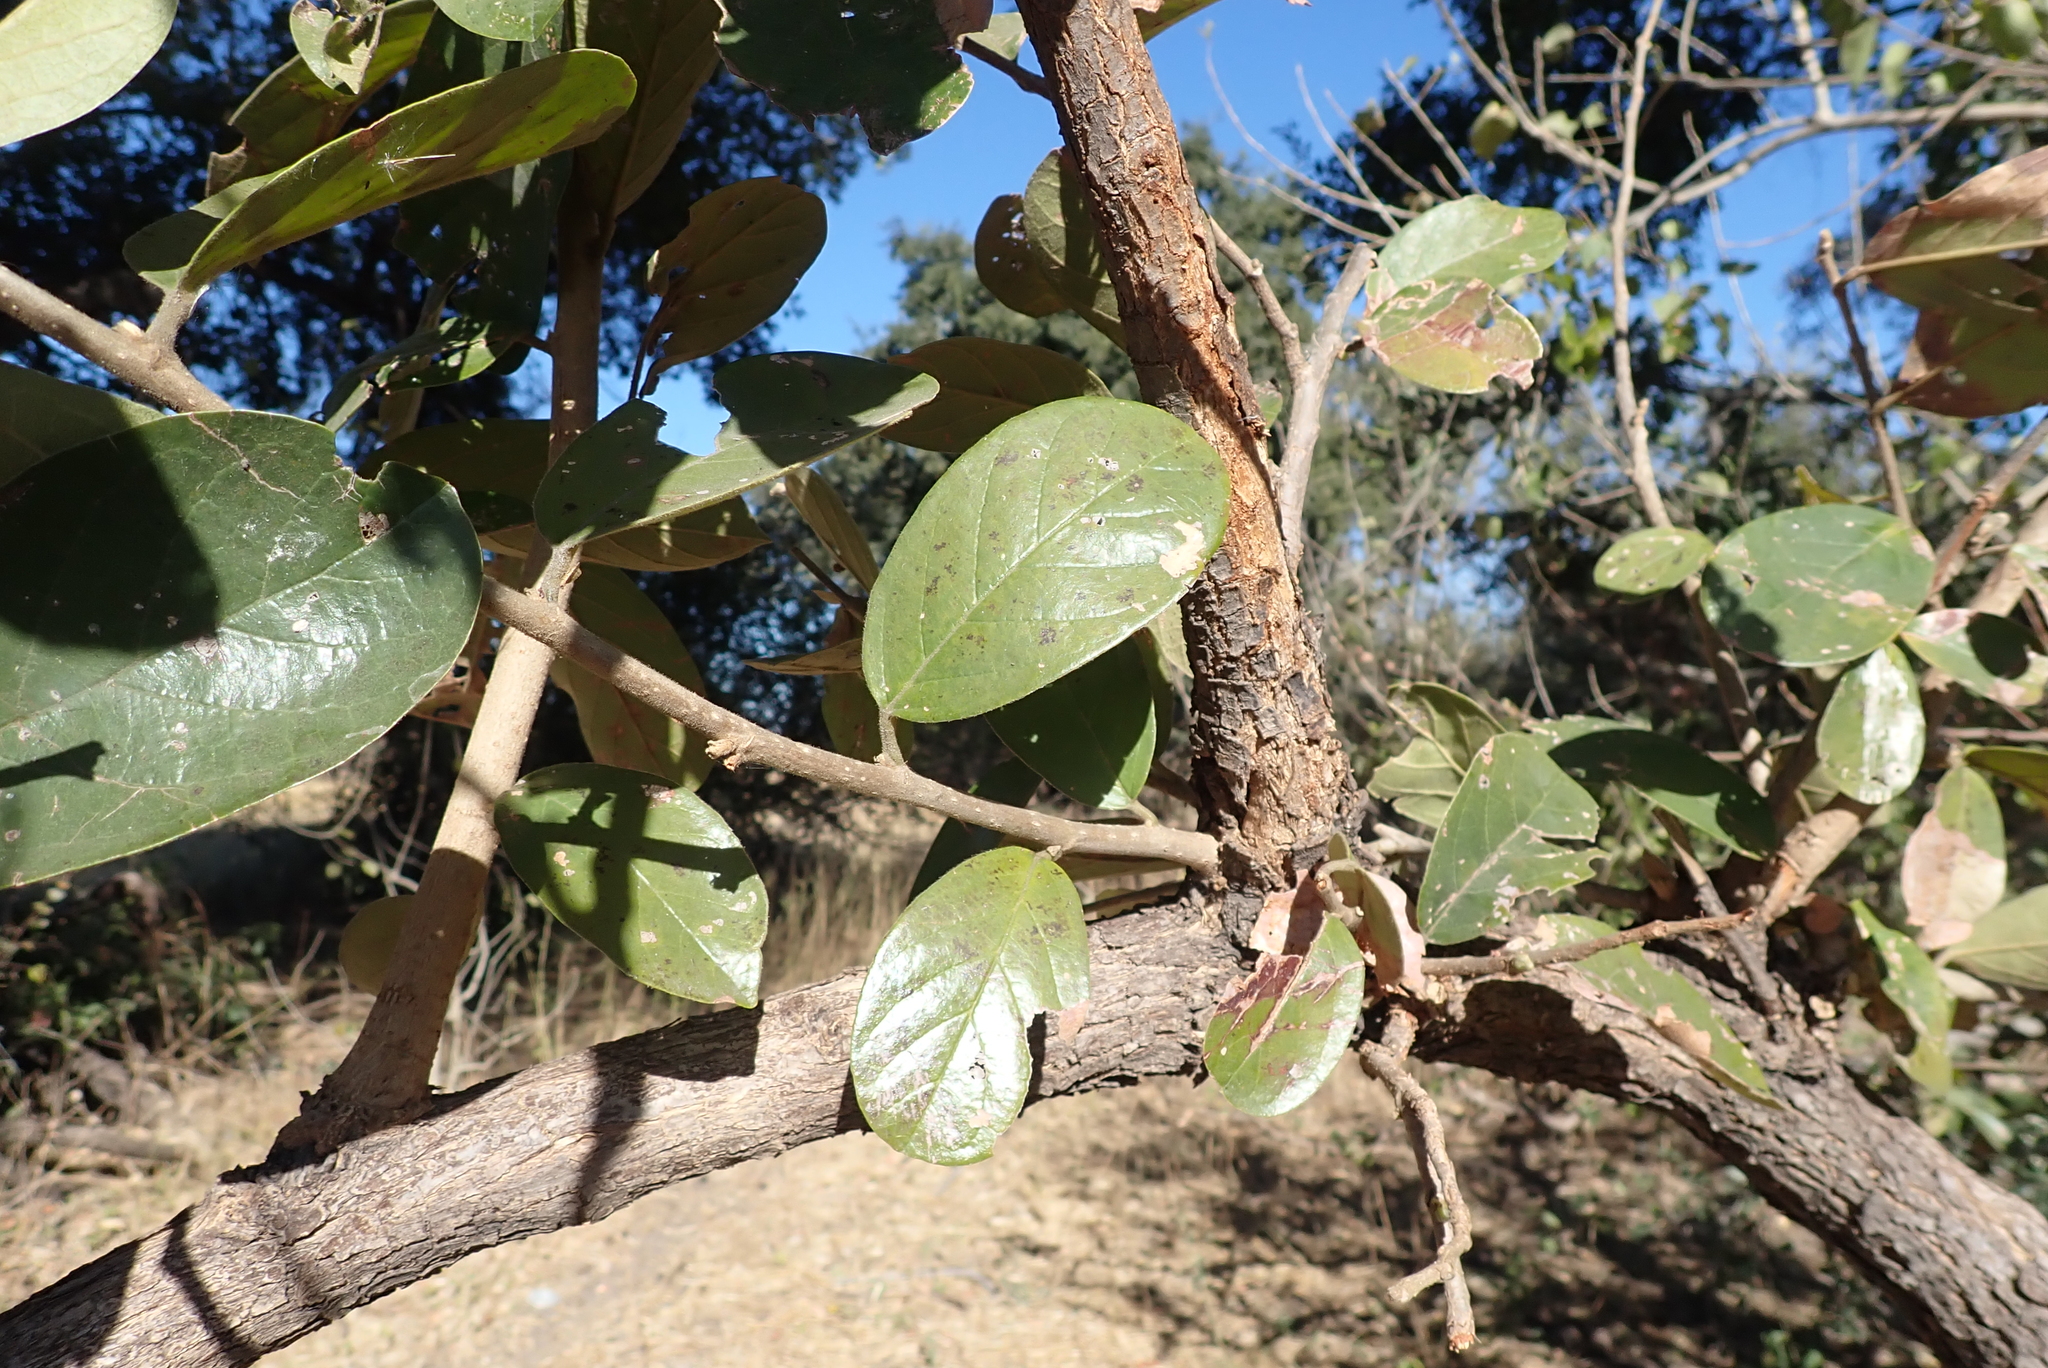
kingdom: Plantae
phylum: Tracheophyta
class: Magnoliopsida
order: Malpighiales
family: Phyllanthaceae
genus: Antidesma
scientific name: Antidesma venosum
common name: Tassel-berry
